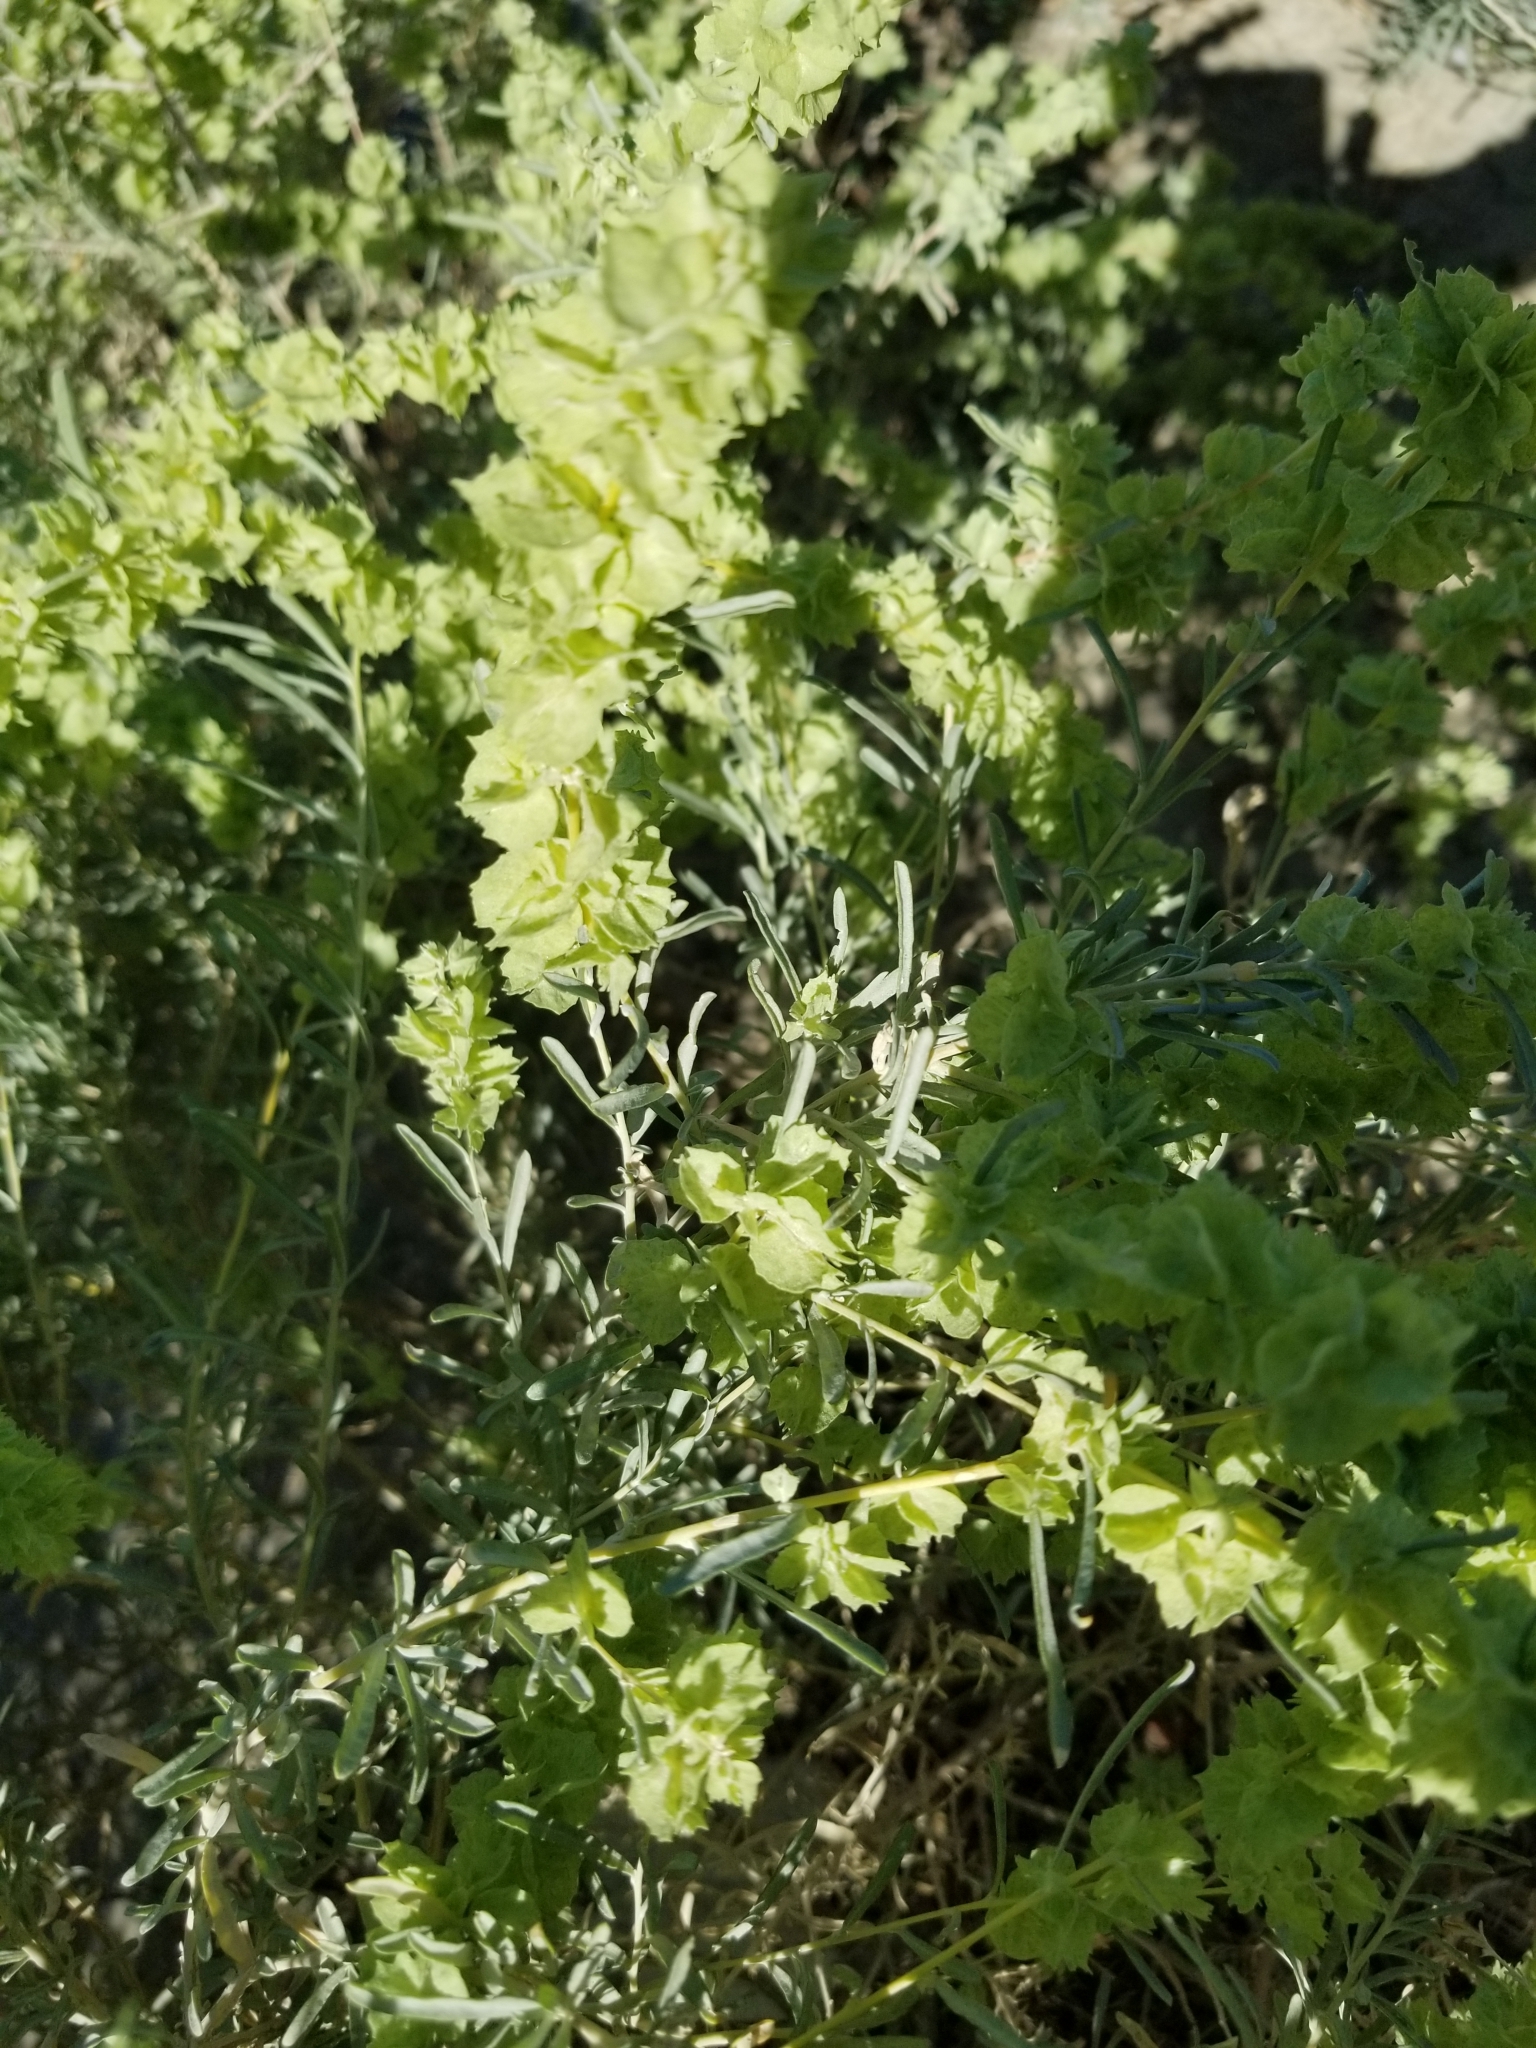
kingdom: Plantae
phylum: Tracheophyta
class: Magnoliopsida
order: Caryophyllales
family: Amaranthaceae
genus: Atriplex
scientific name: Atriplex canescens
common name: Four-wing saltbush
